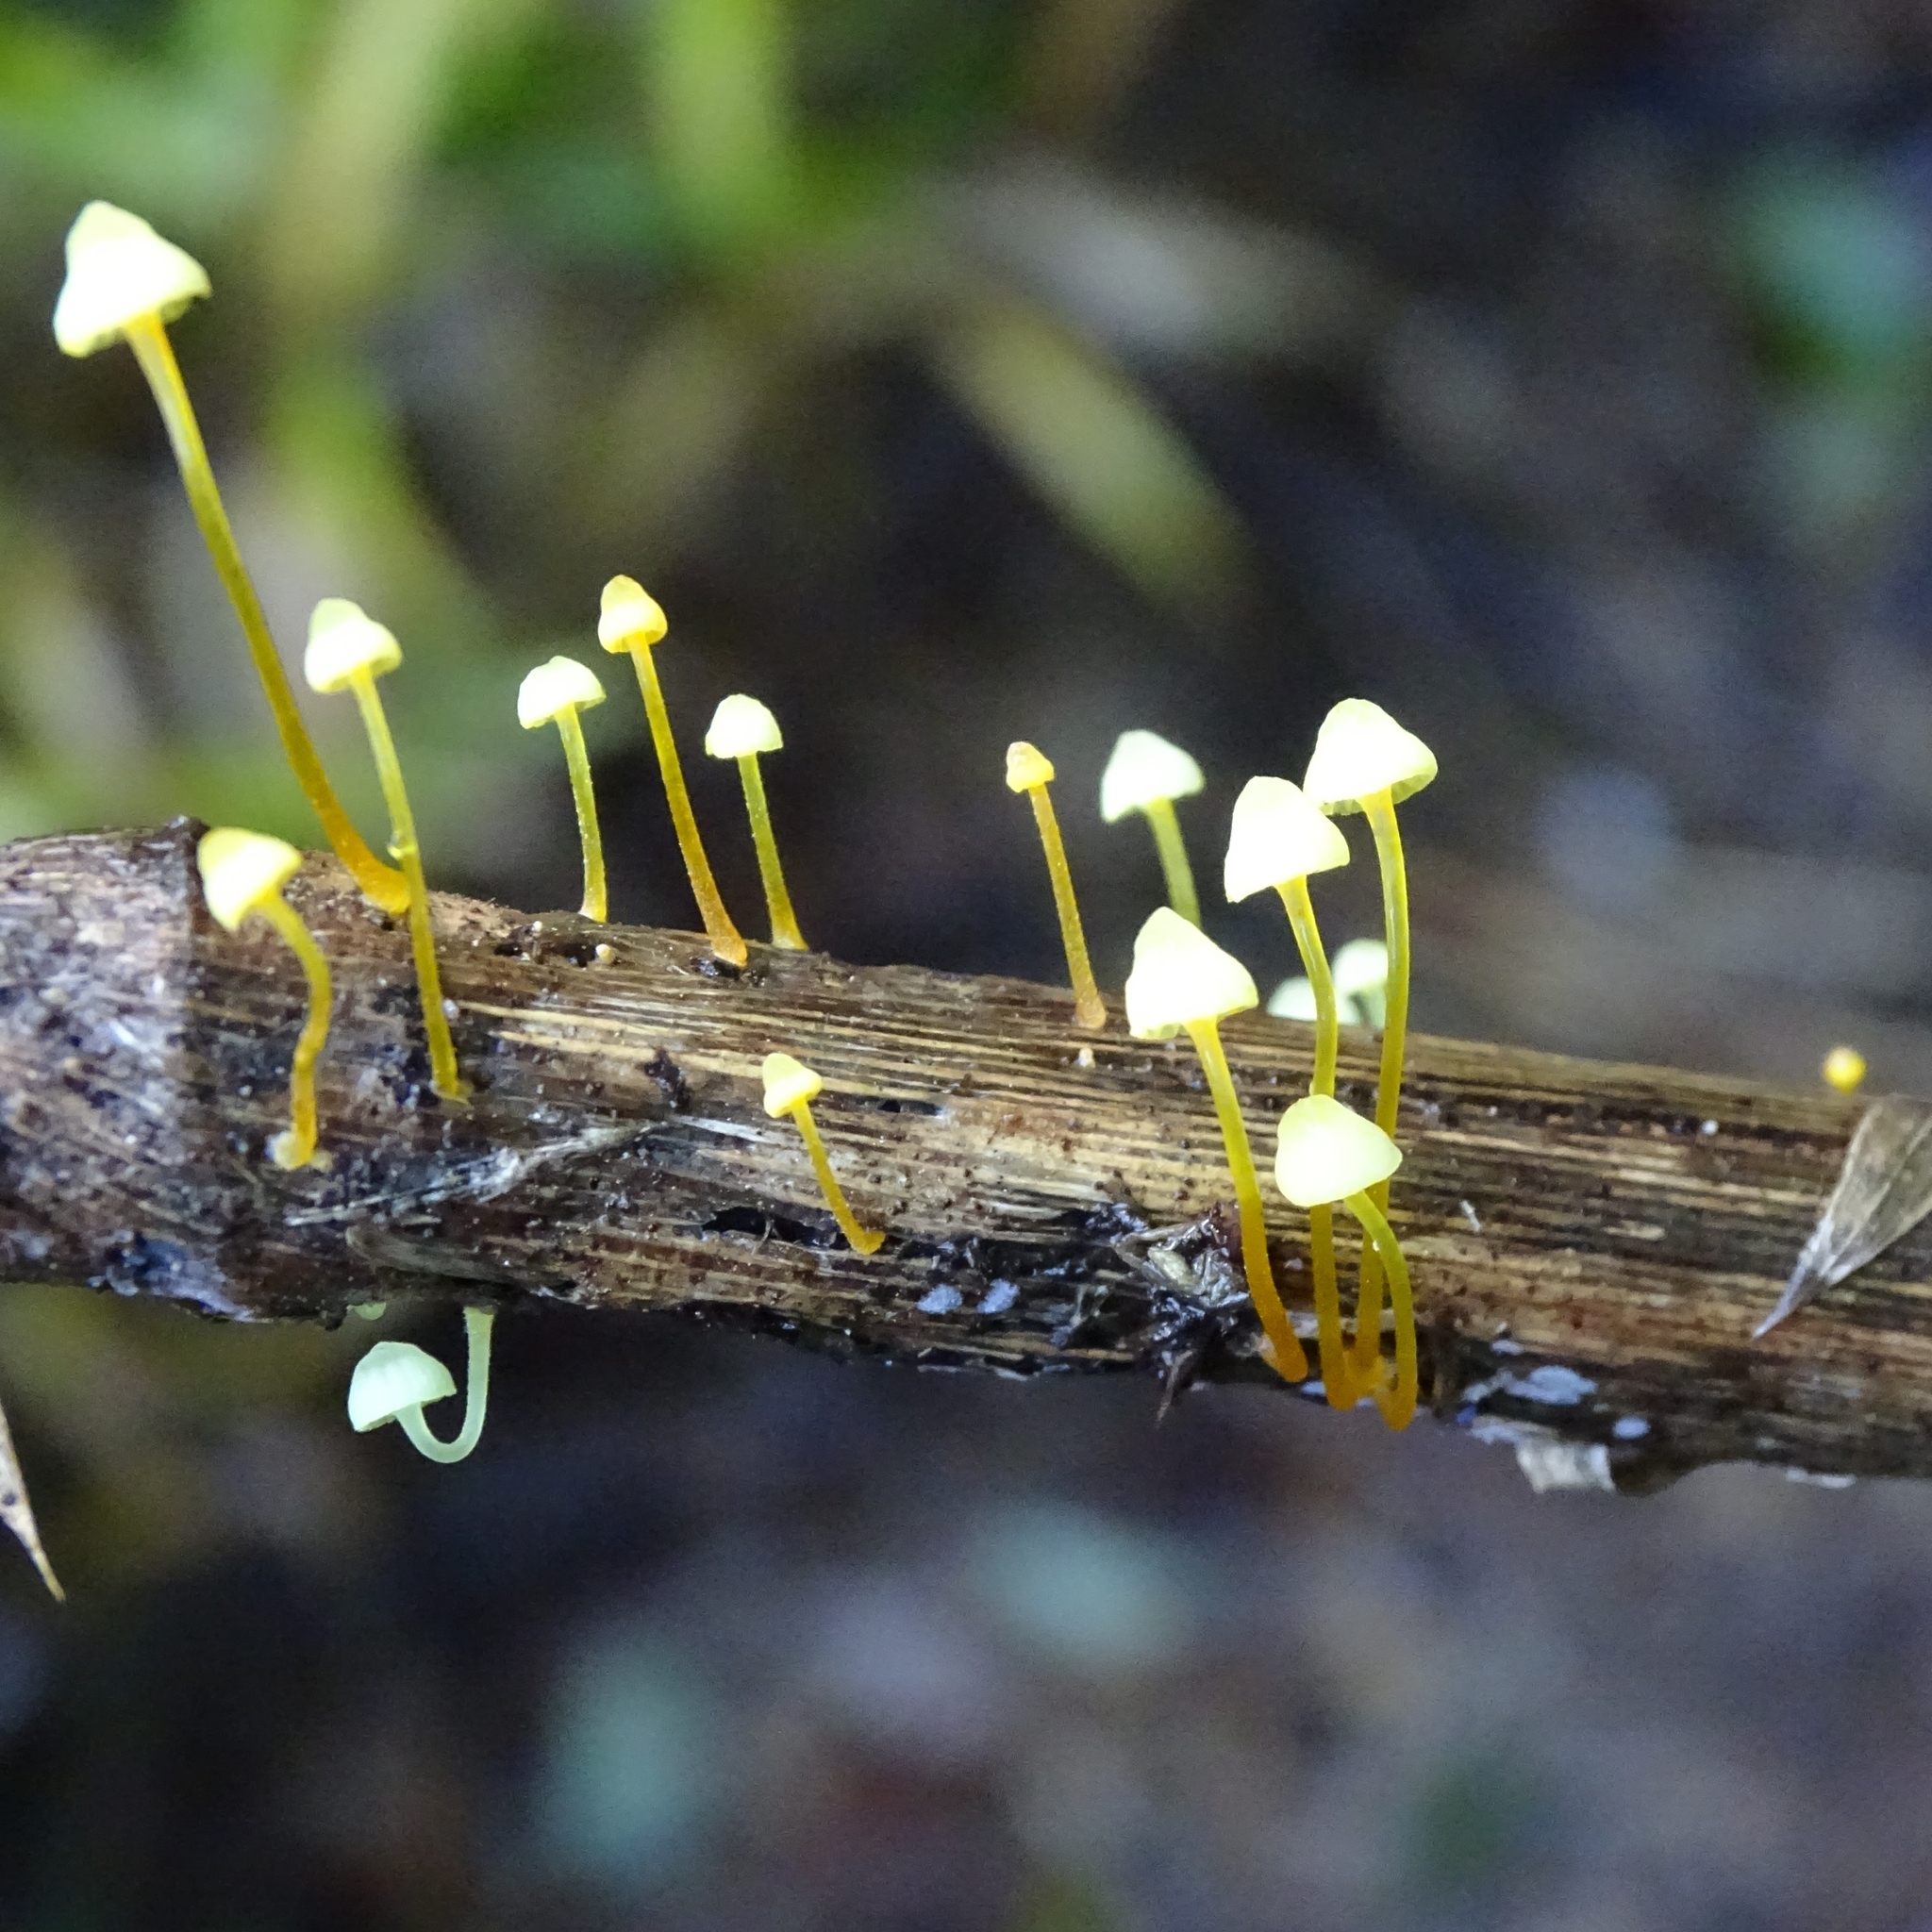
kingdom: Fungi
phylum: Basidiomycota
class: Agaricomycetes
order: Agaricales
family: Mycenaceae
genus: Mycena
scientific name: Mycena chusqueophila
